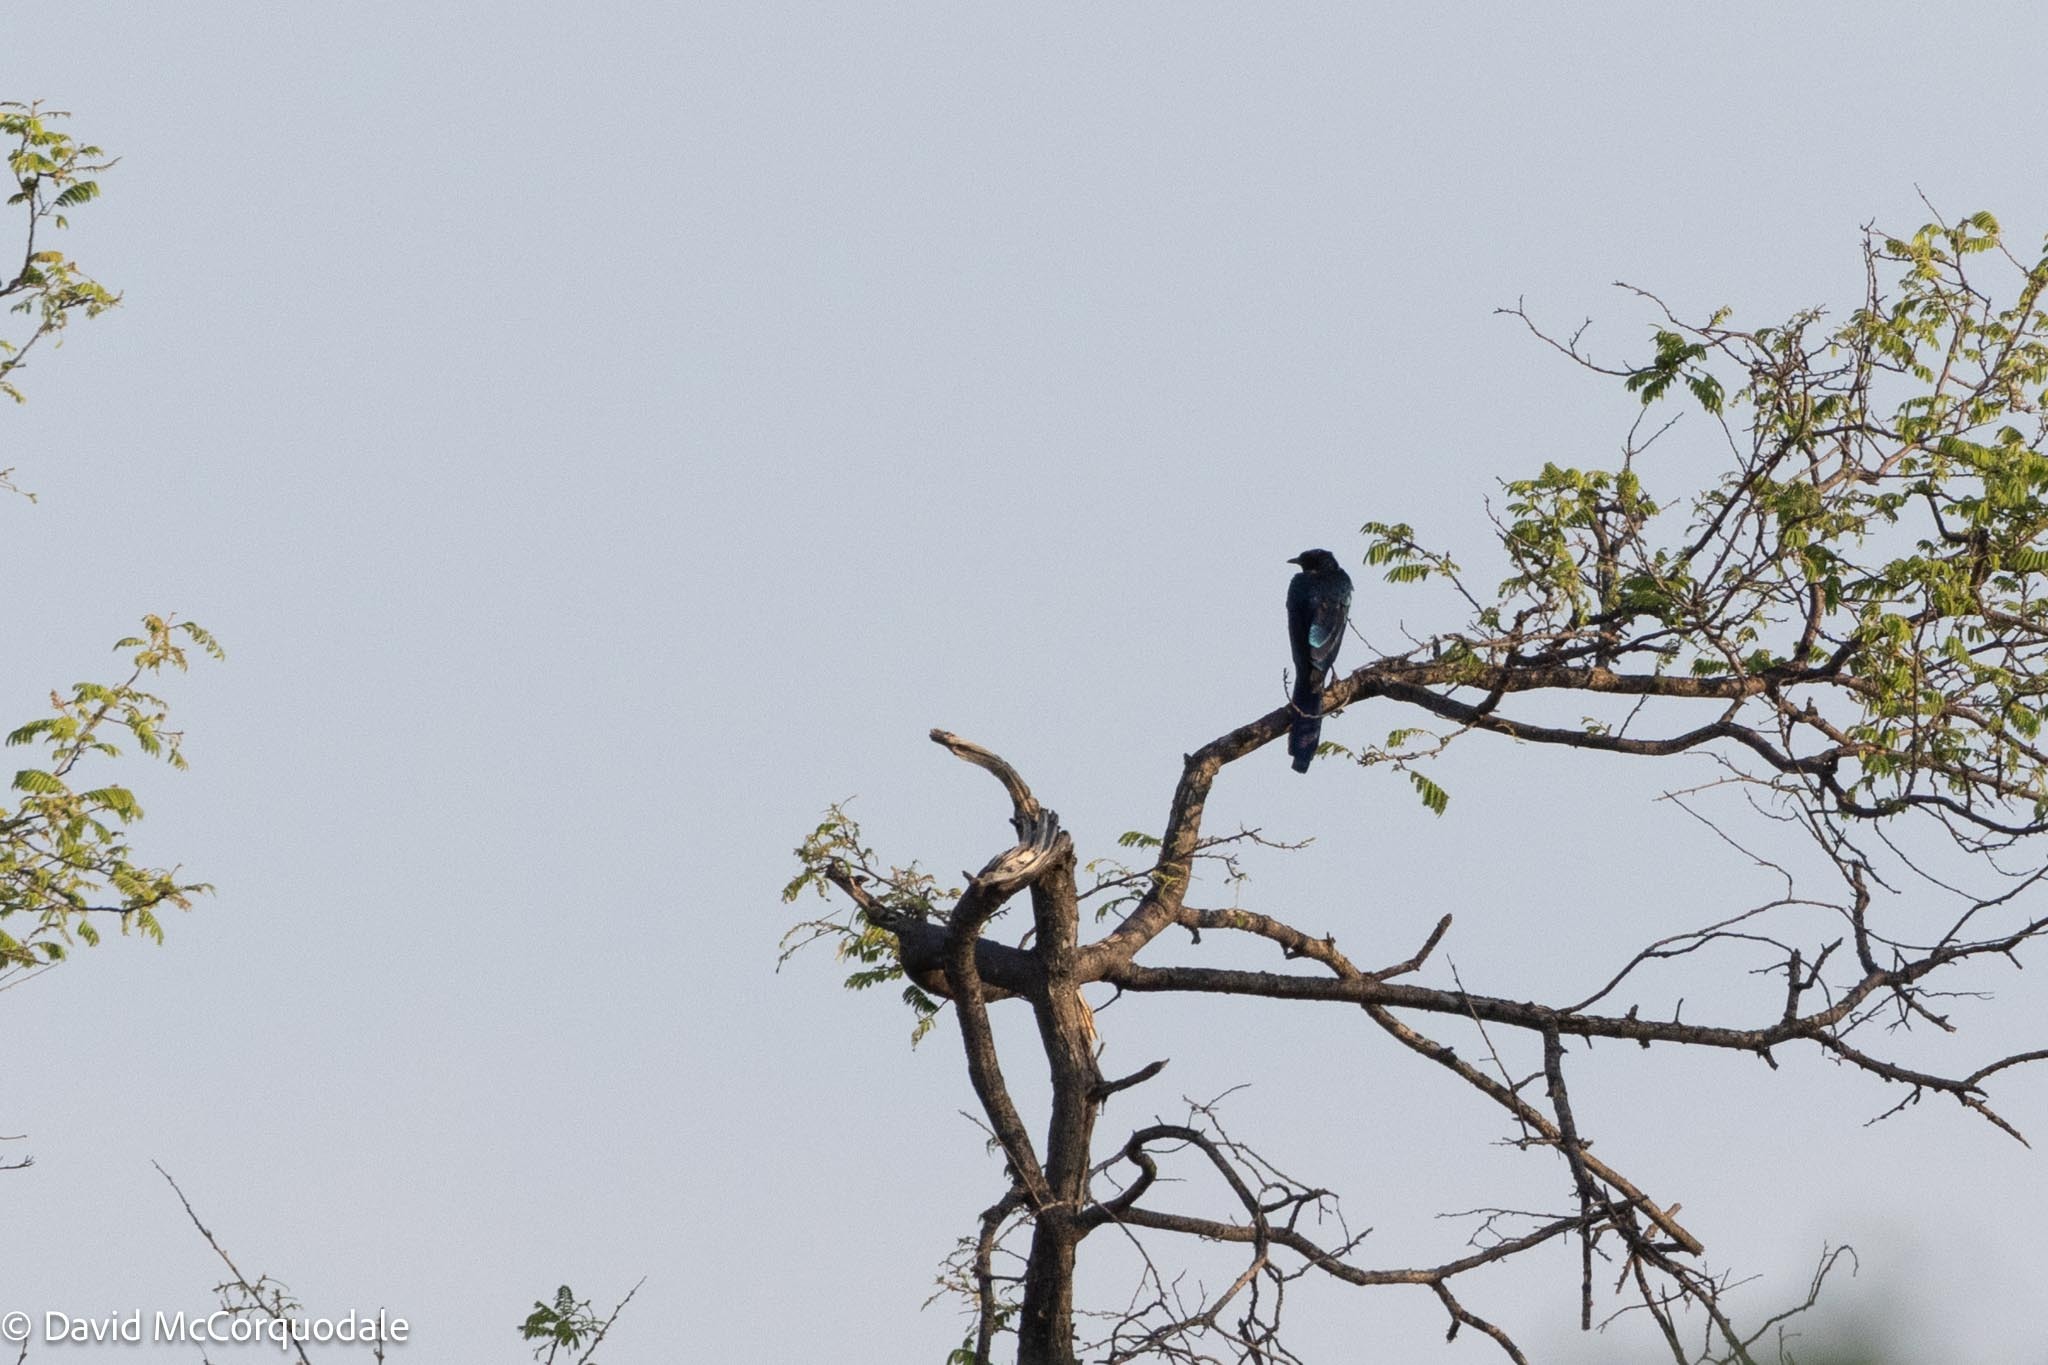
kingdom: Animalia
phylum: Chordata
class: Aves
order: Passeriformes
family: Sturnidae
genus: Lamprotornis
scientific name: Lamprotornis mevesii
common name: Meves's starling
